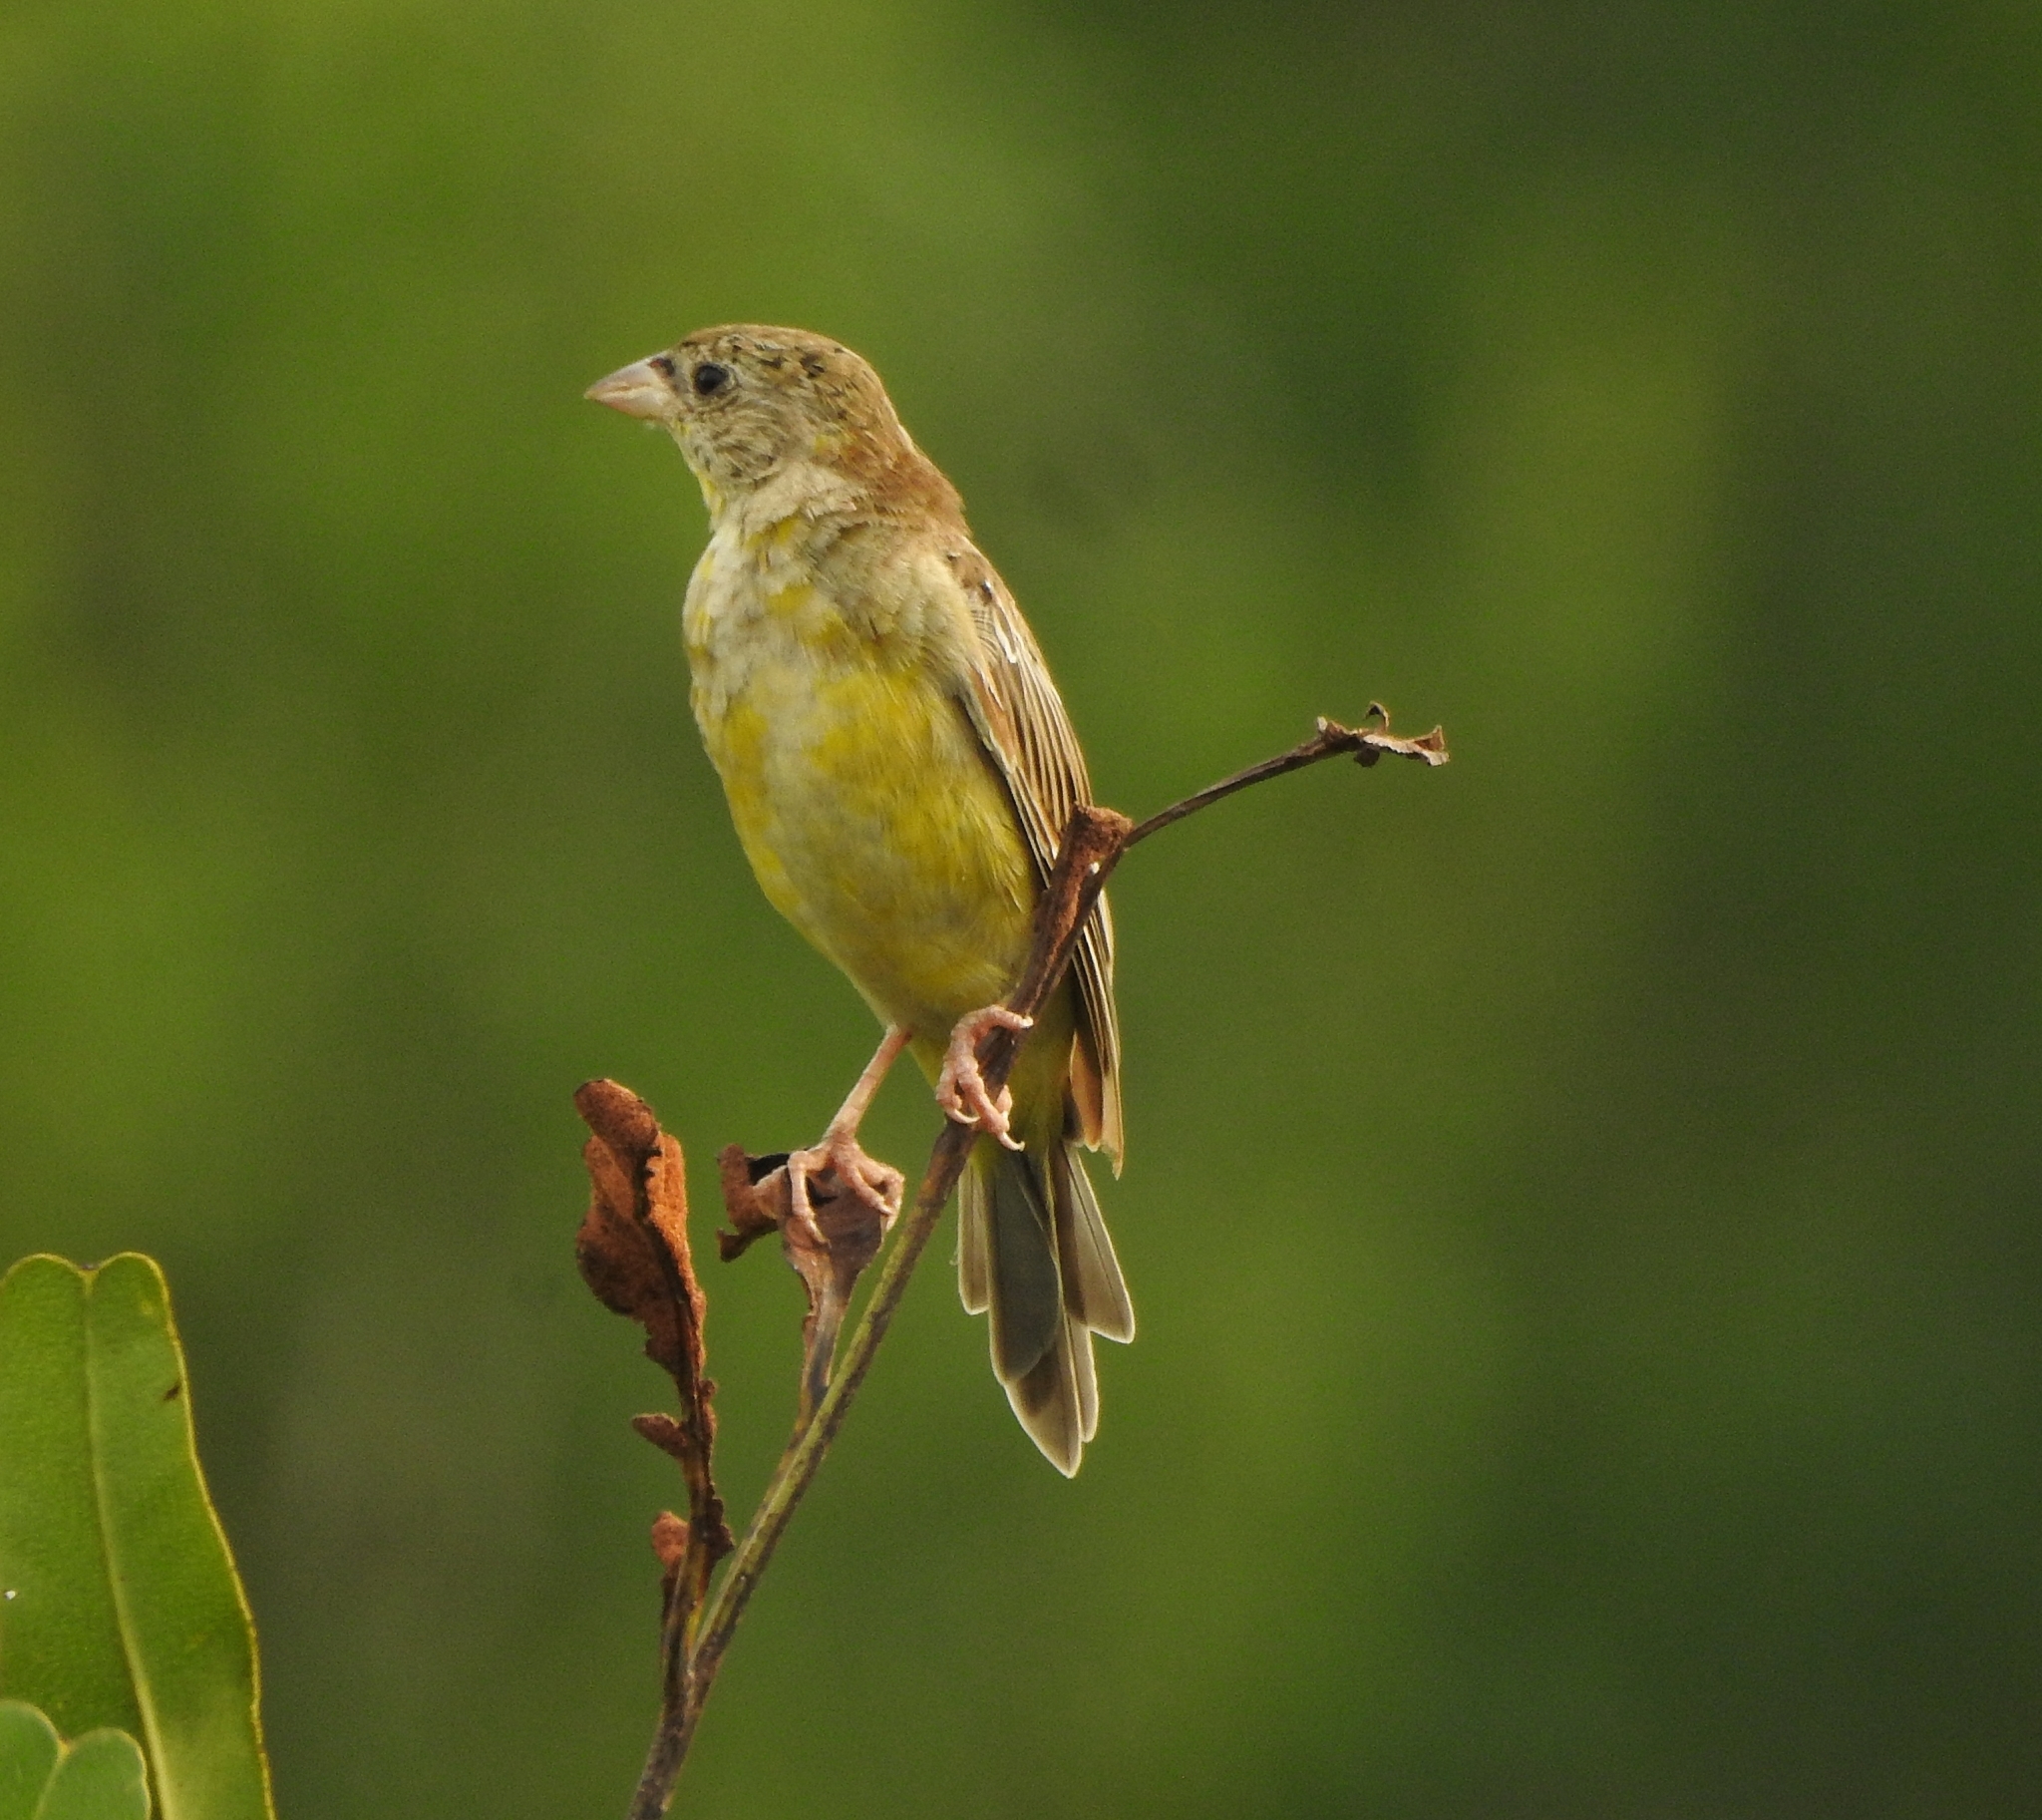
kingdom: Animalia
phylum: Chordata
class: Aves
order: Passeriformes
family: Emberizidae
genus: Emberiza
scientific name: Emberiza melanocephala
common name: Black-headed bunting
